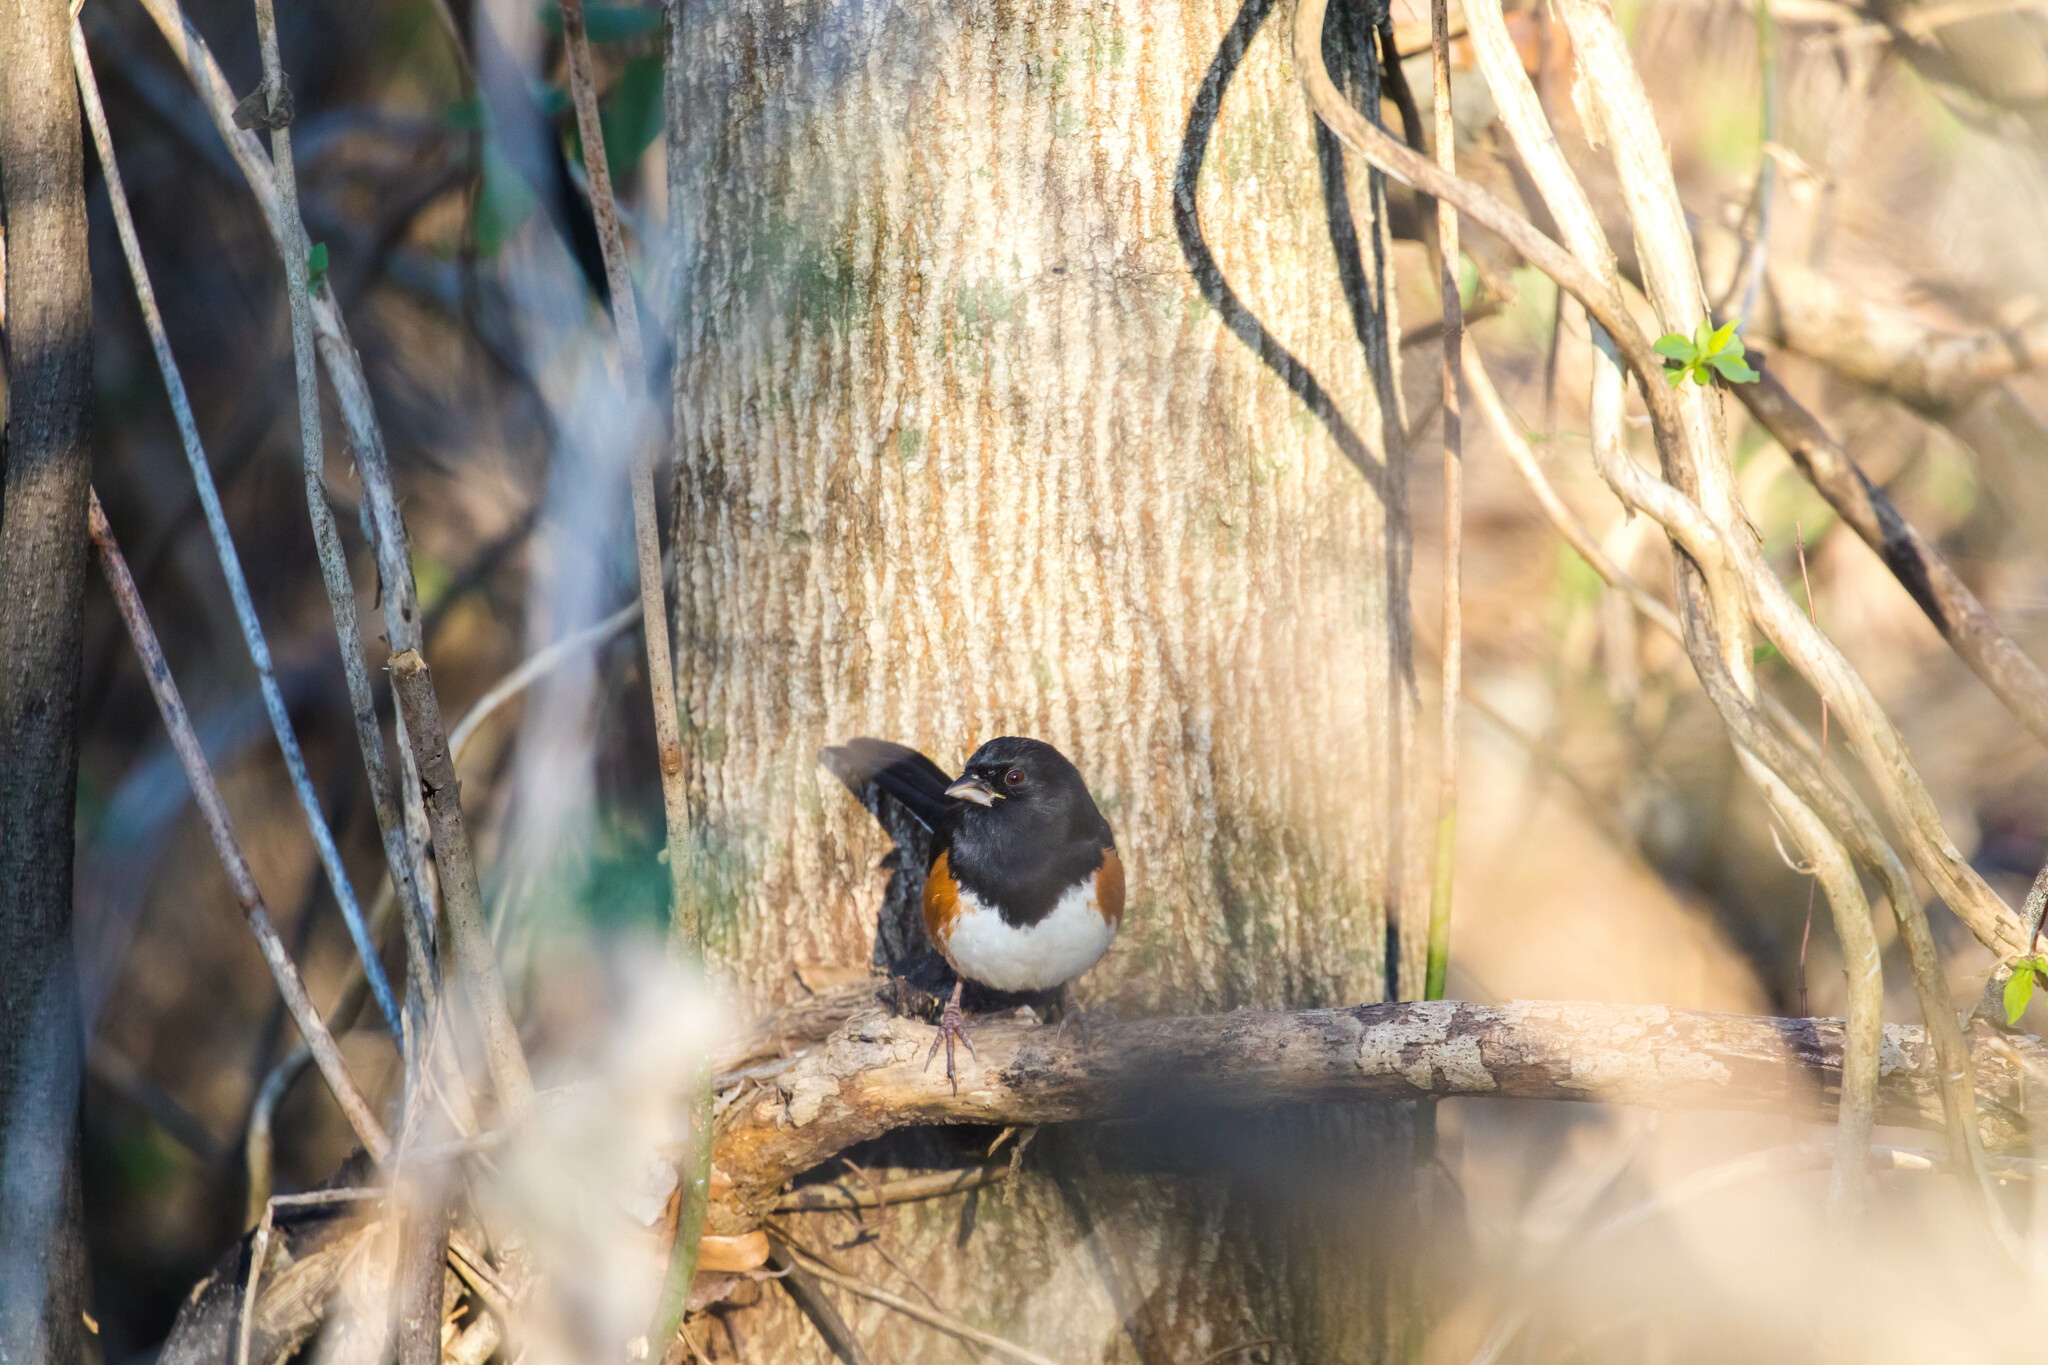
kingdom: Animalia
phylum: Chordata
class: Aves
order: Passeriformes
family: Passerellidae
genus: Pipilo
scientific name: Pipilo erythrophthalmus
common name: Eastern towhee
